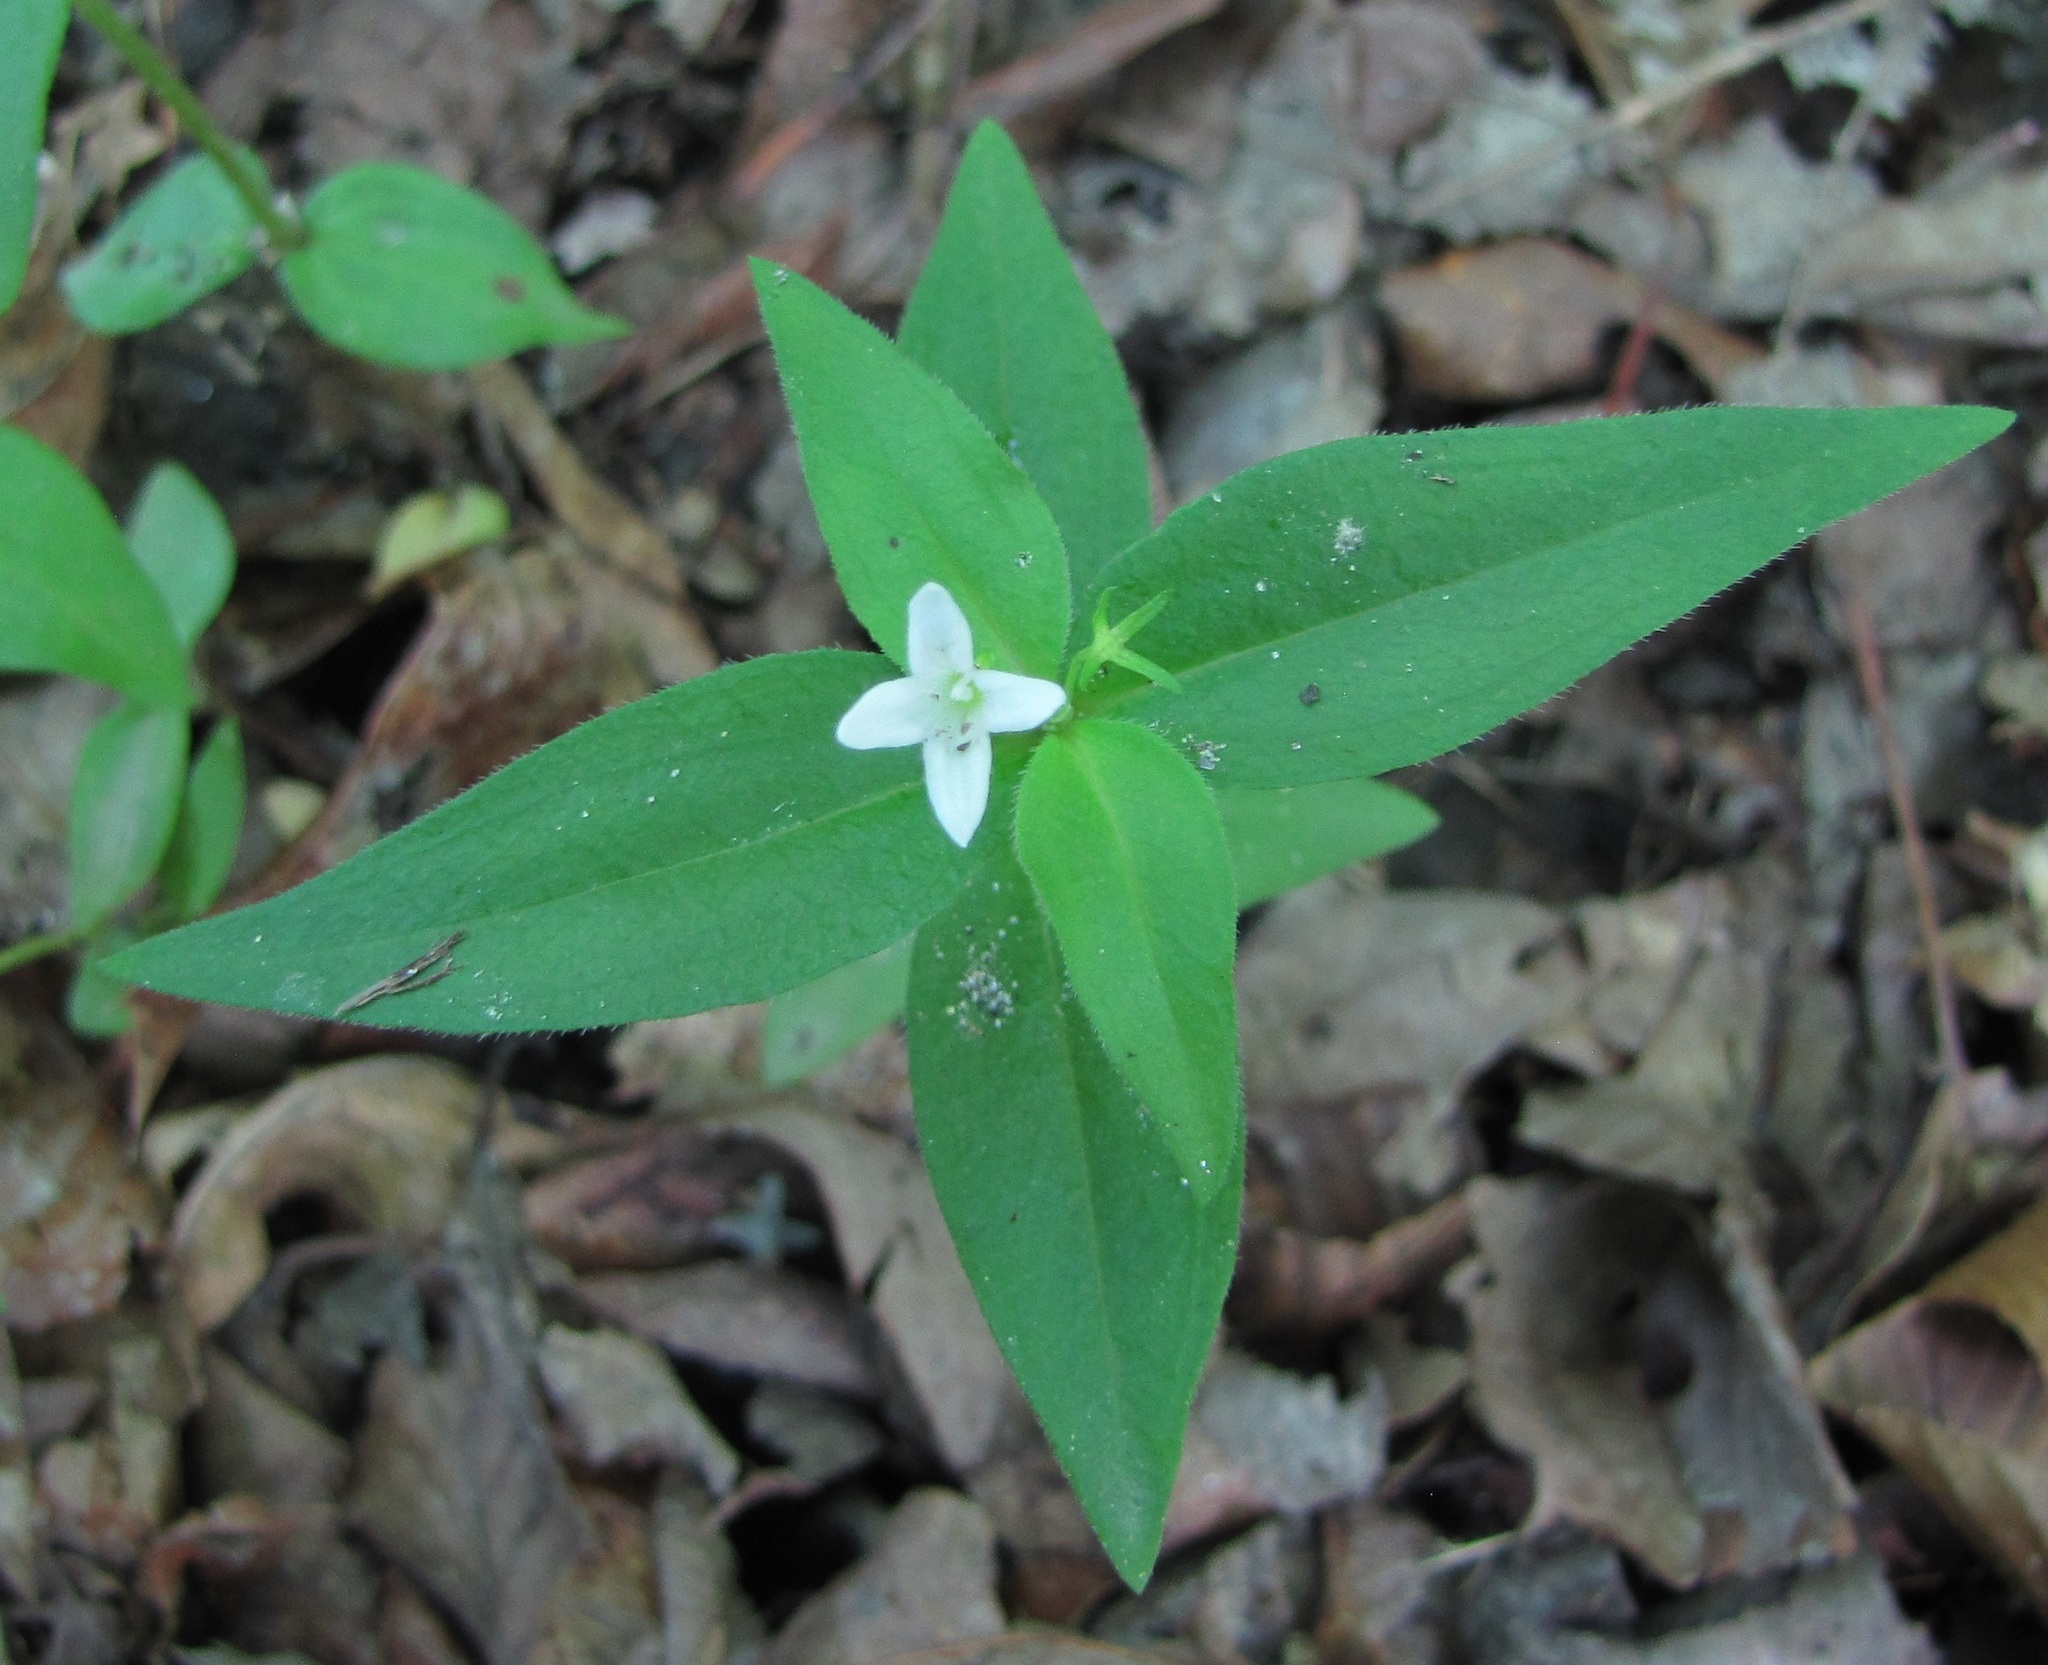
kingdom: Plantae
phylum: Tracheophyta
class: Magnoliopsida
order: Gentianales
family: Rubiaceae
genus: Houstonia
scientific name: Houstonia purpurea
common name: Summer bluet
